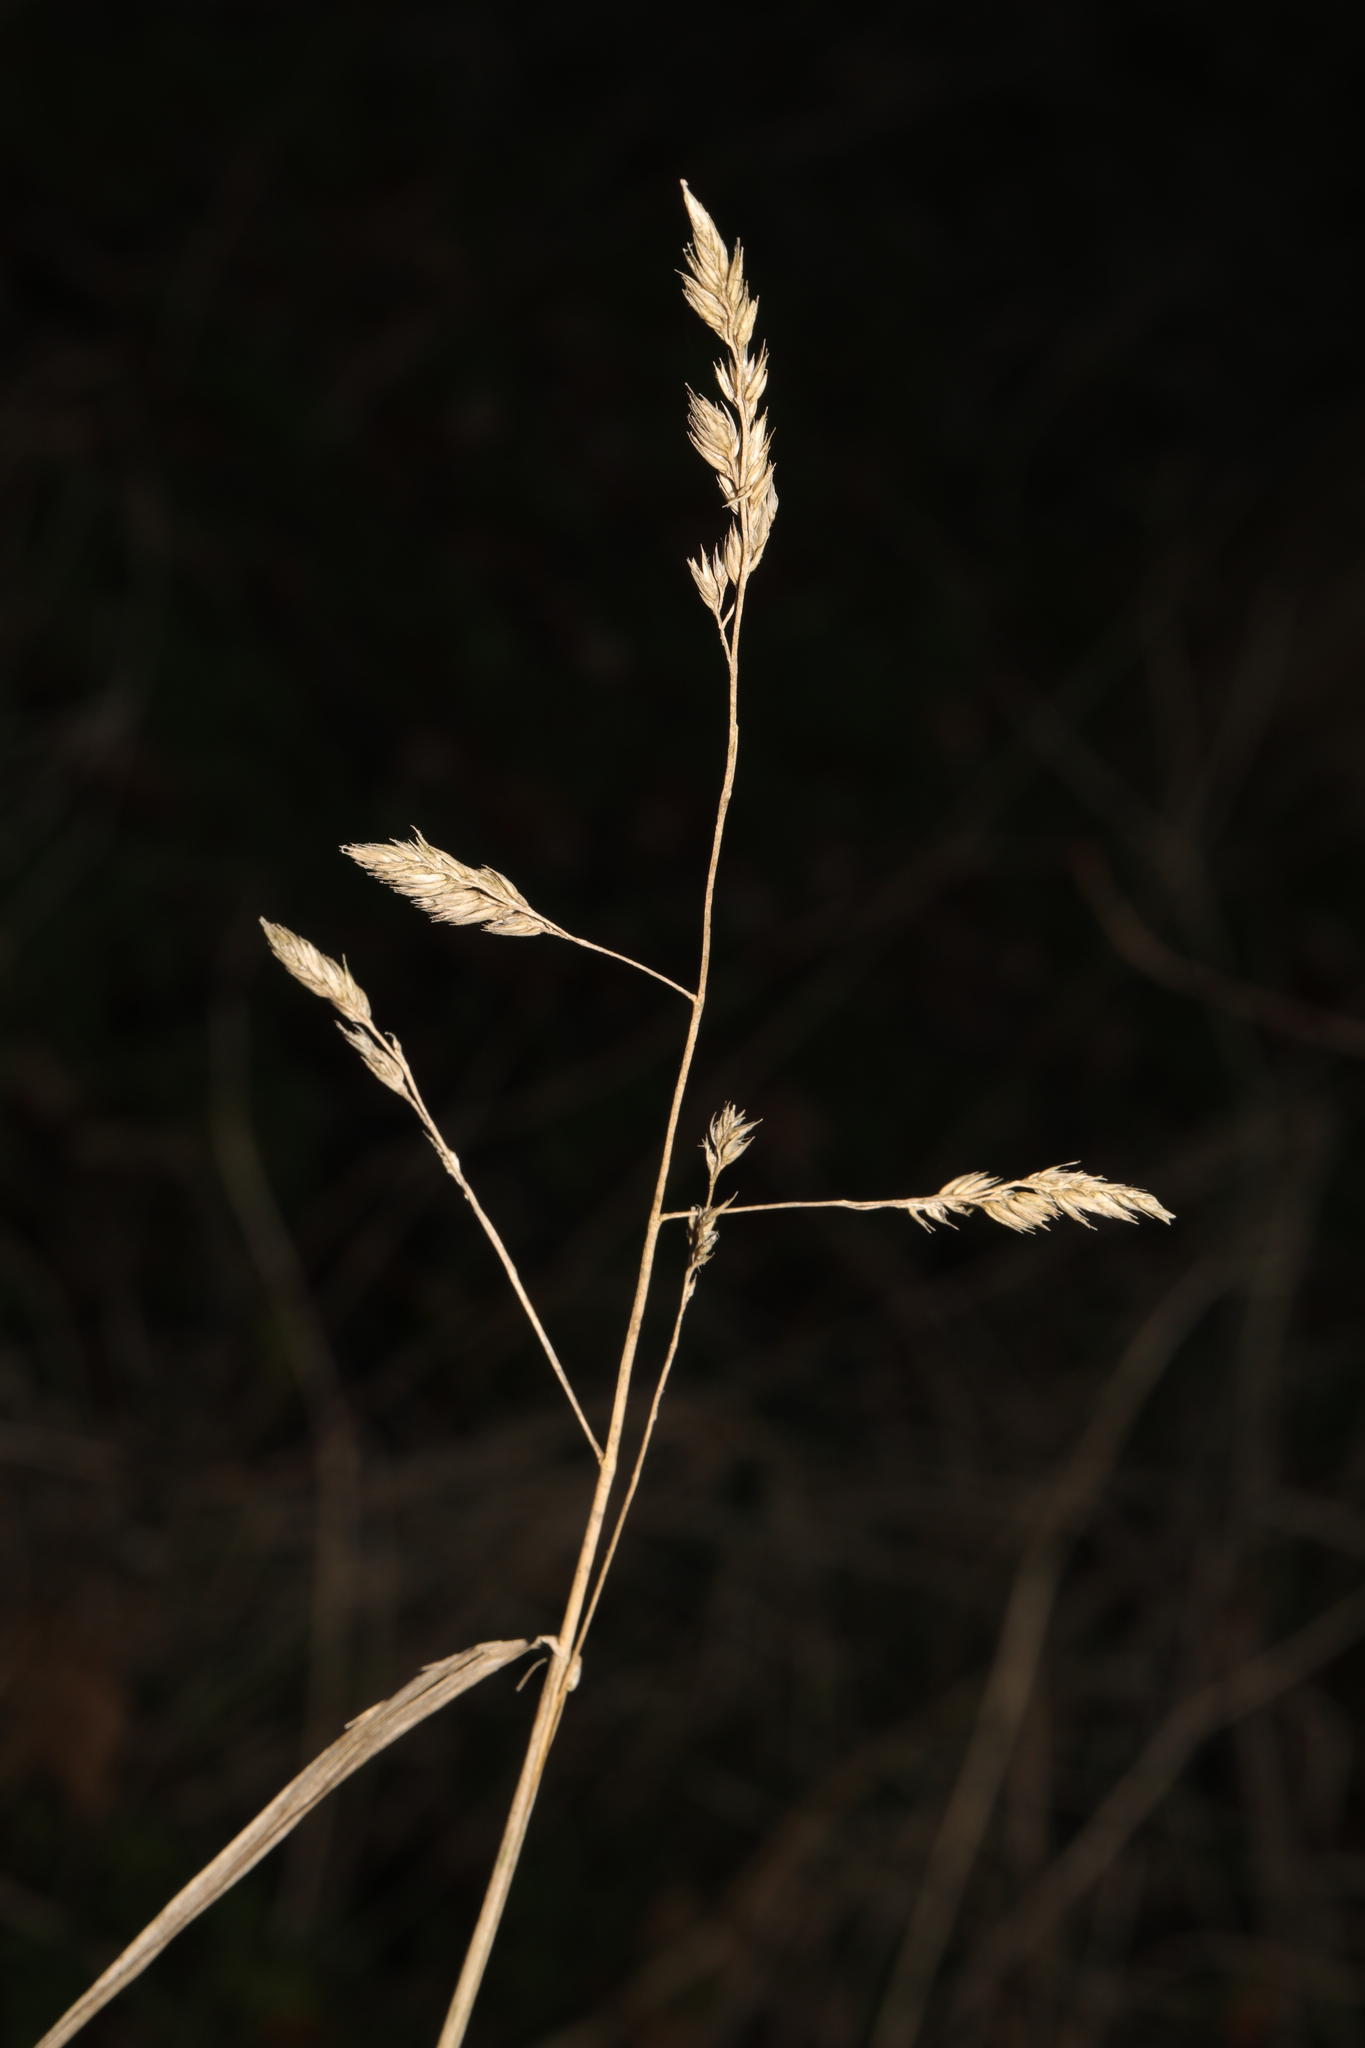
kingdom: Plantae
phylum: Tracheophyta
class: Liliopsida
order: Poales
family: Poaceae
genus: Dactylis
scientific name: Dactylis glomerata
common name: Orchardgrass
